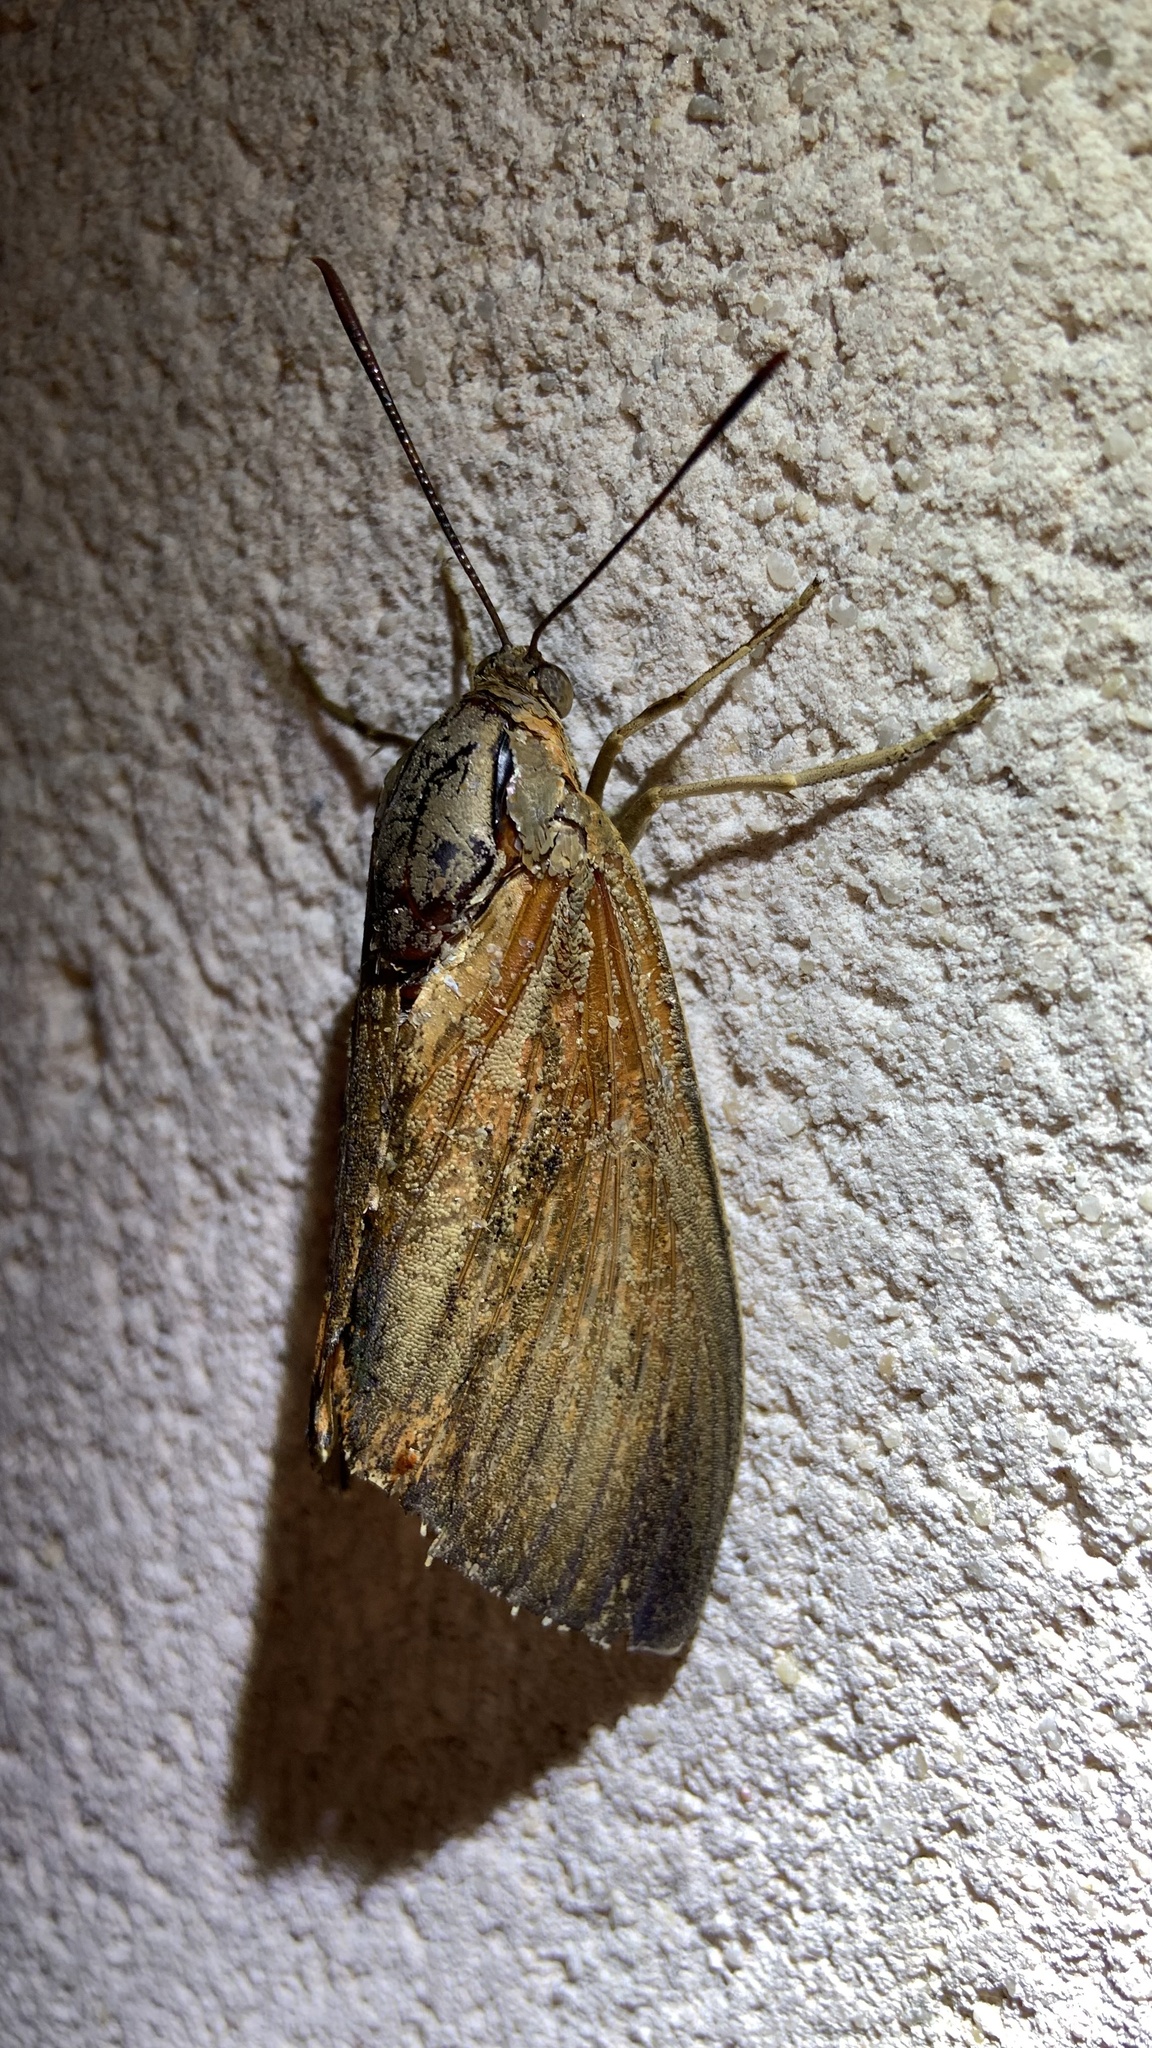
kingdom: Animalia
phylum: Arthropoda
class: Insecta
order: Lepidoptera
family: Castniidae
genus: Paysandisia
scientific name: Paysandisia archon
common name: Palm moth
